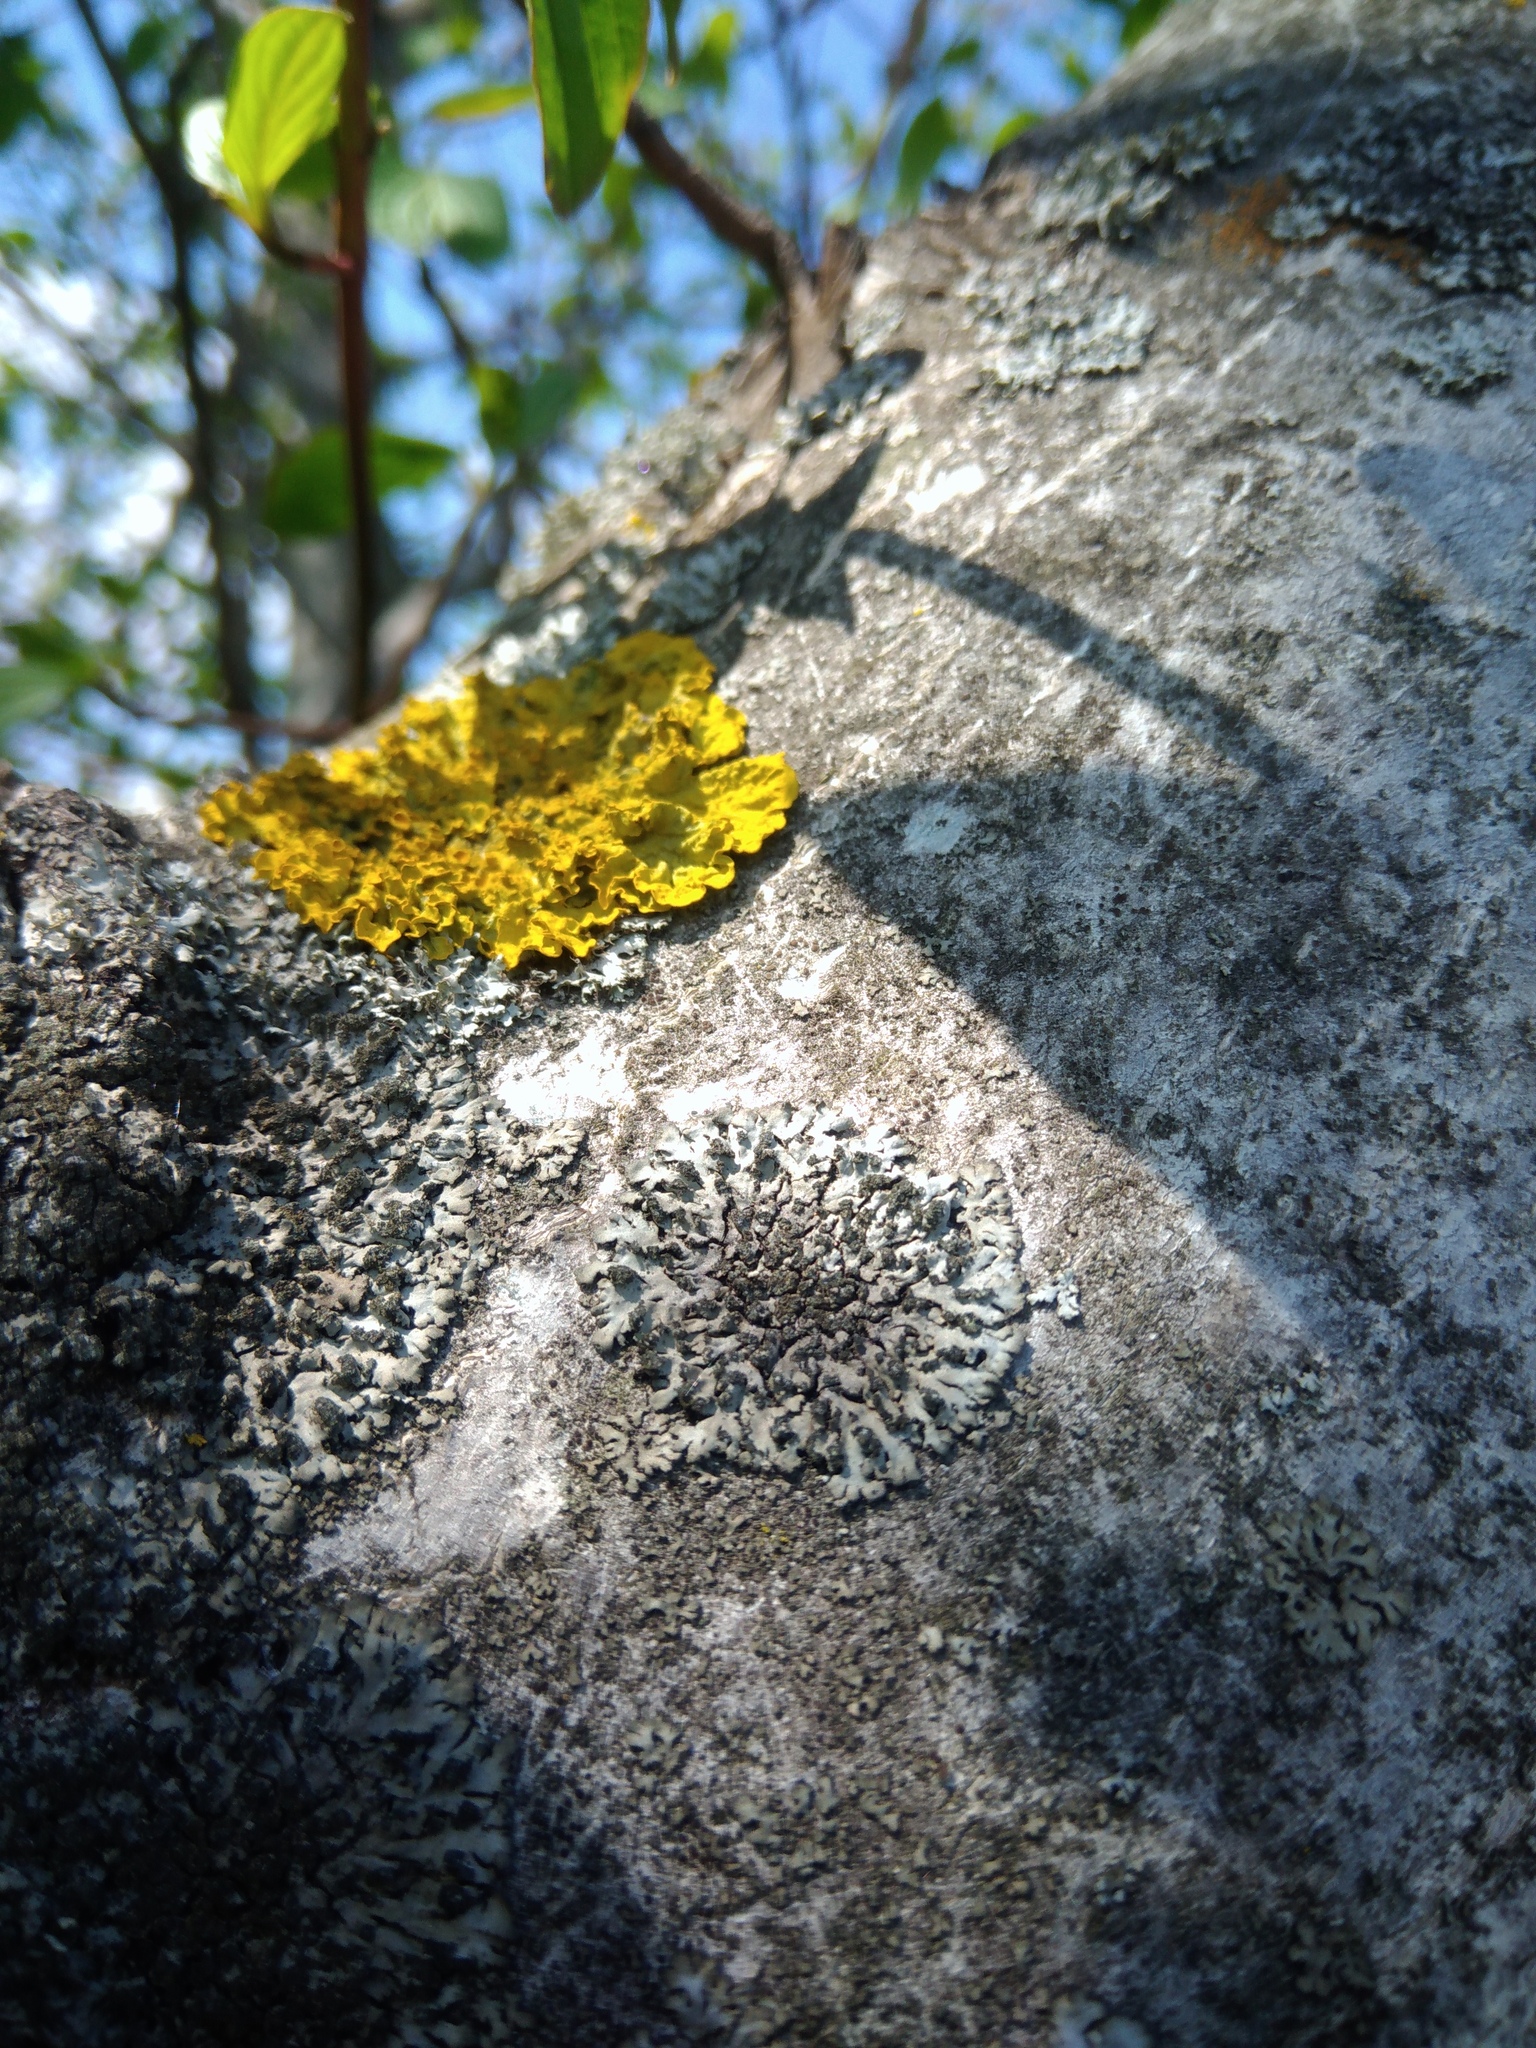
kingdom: Fungi
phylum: Ascomycota
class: Lecanoromycetes
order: Caliciales
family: Physciaceae
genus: Phaeophyscia
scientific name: Phaeophyscia orbicularis
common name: Mealy shadow lichen
